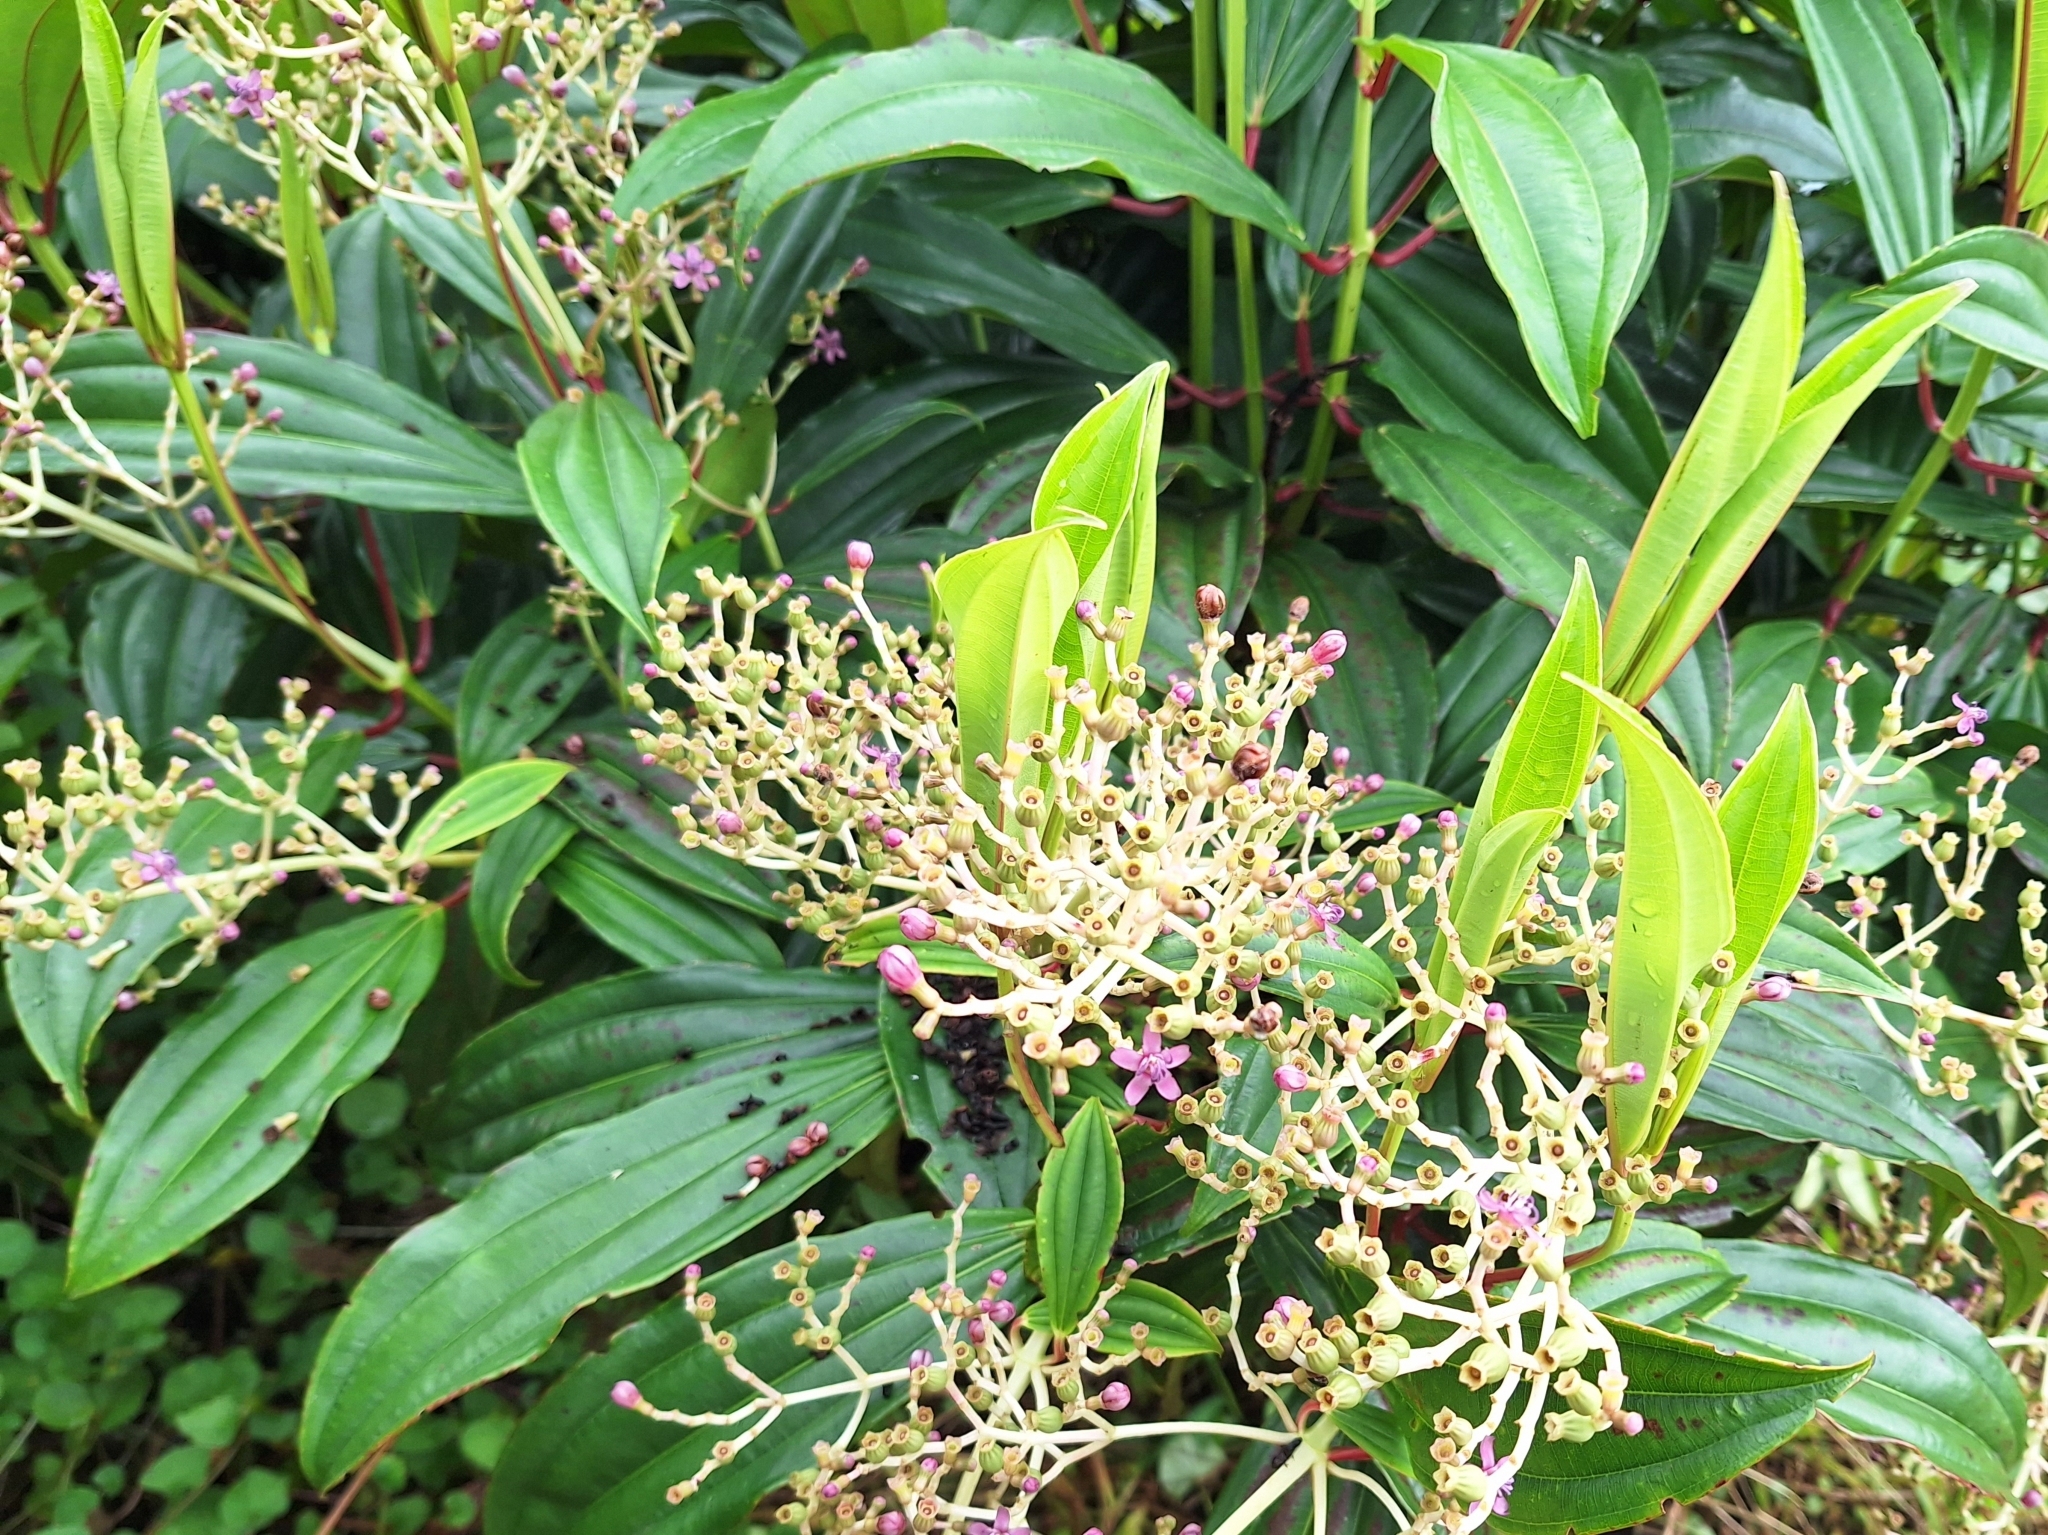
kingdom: Plantae
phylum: Tracheophyta
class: Magnoliopsida
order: Myrtales
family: Melastomataceae
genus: Miconia
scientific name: Miconia robinsoniana
